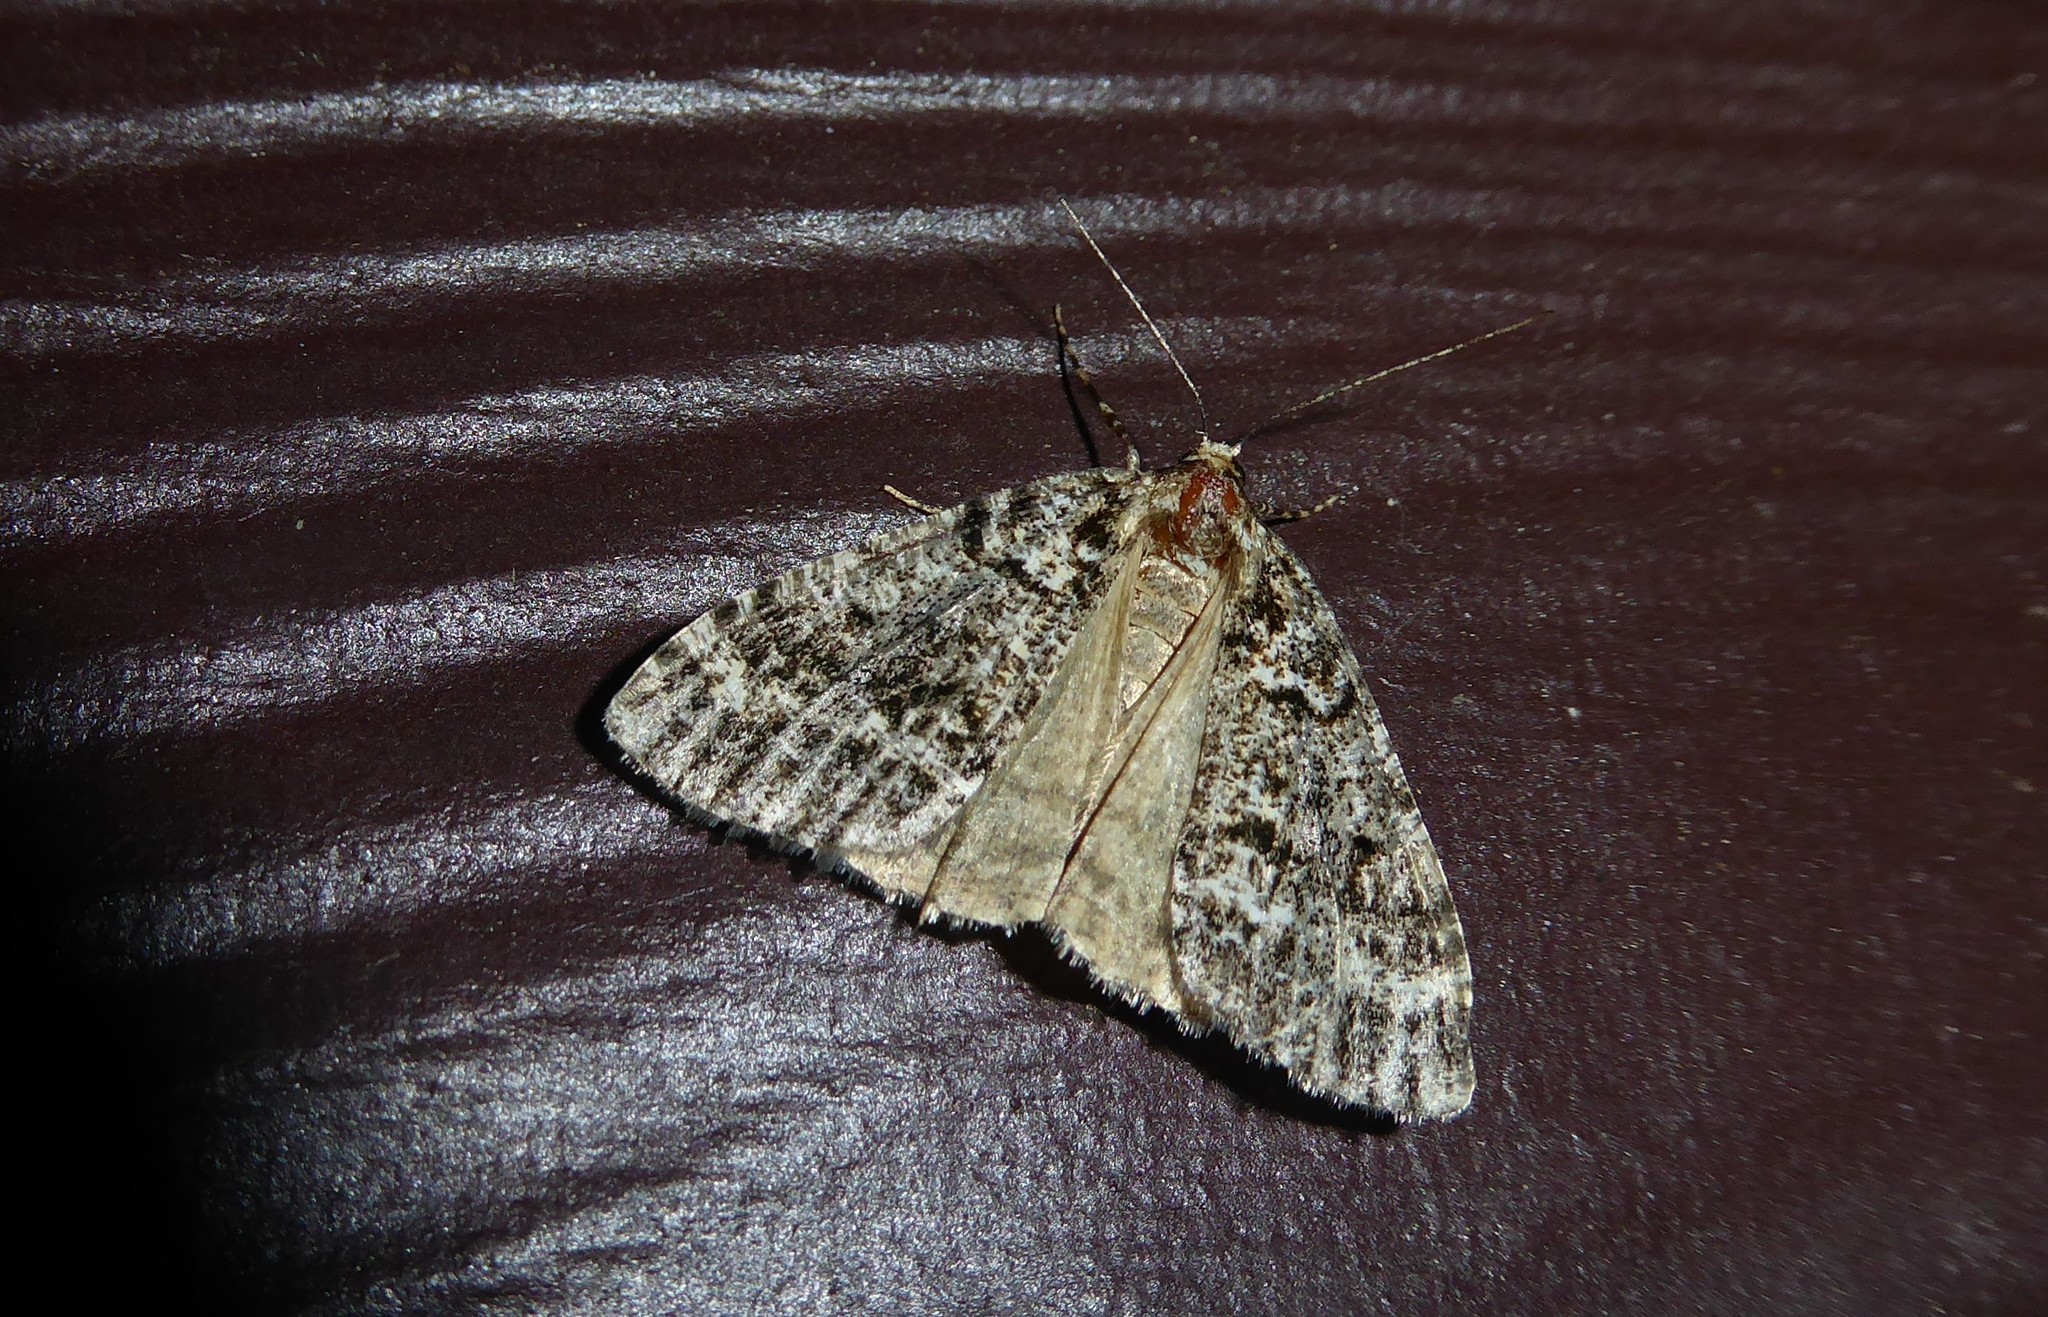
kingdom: Animalia
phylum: Arthropoda
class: Insecta
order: Lepidoptera
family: Geometridae
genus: Pseudocoremia
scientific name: Pseudocoremia leucelaea
